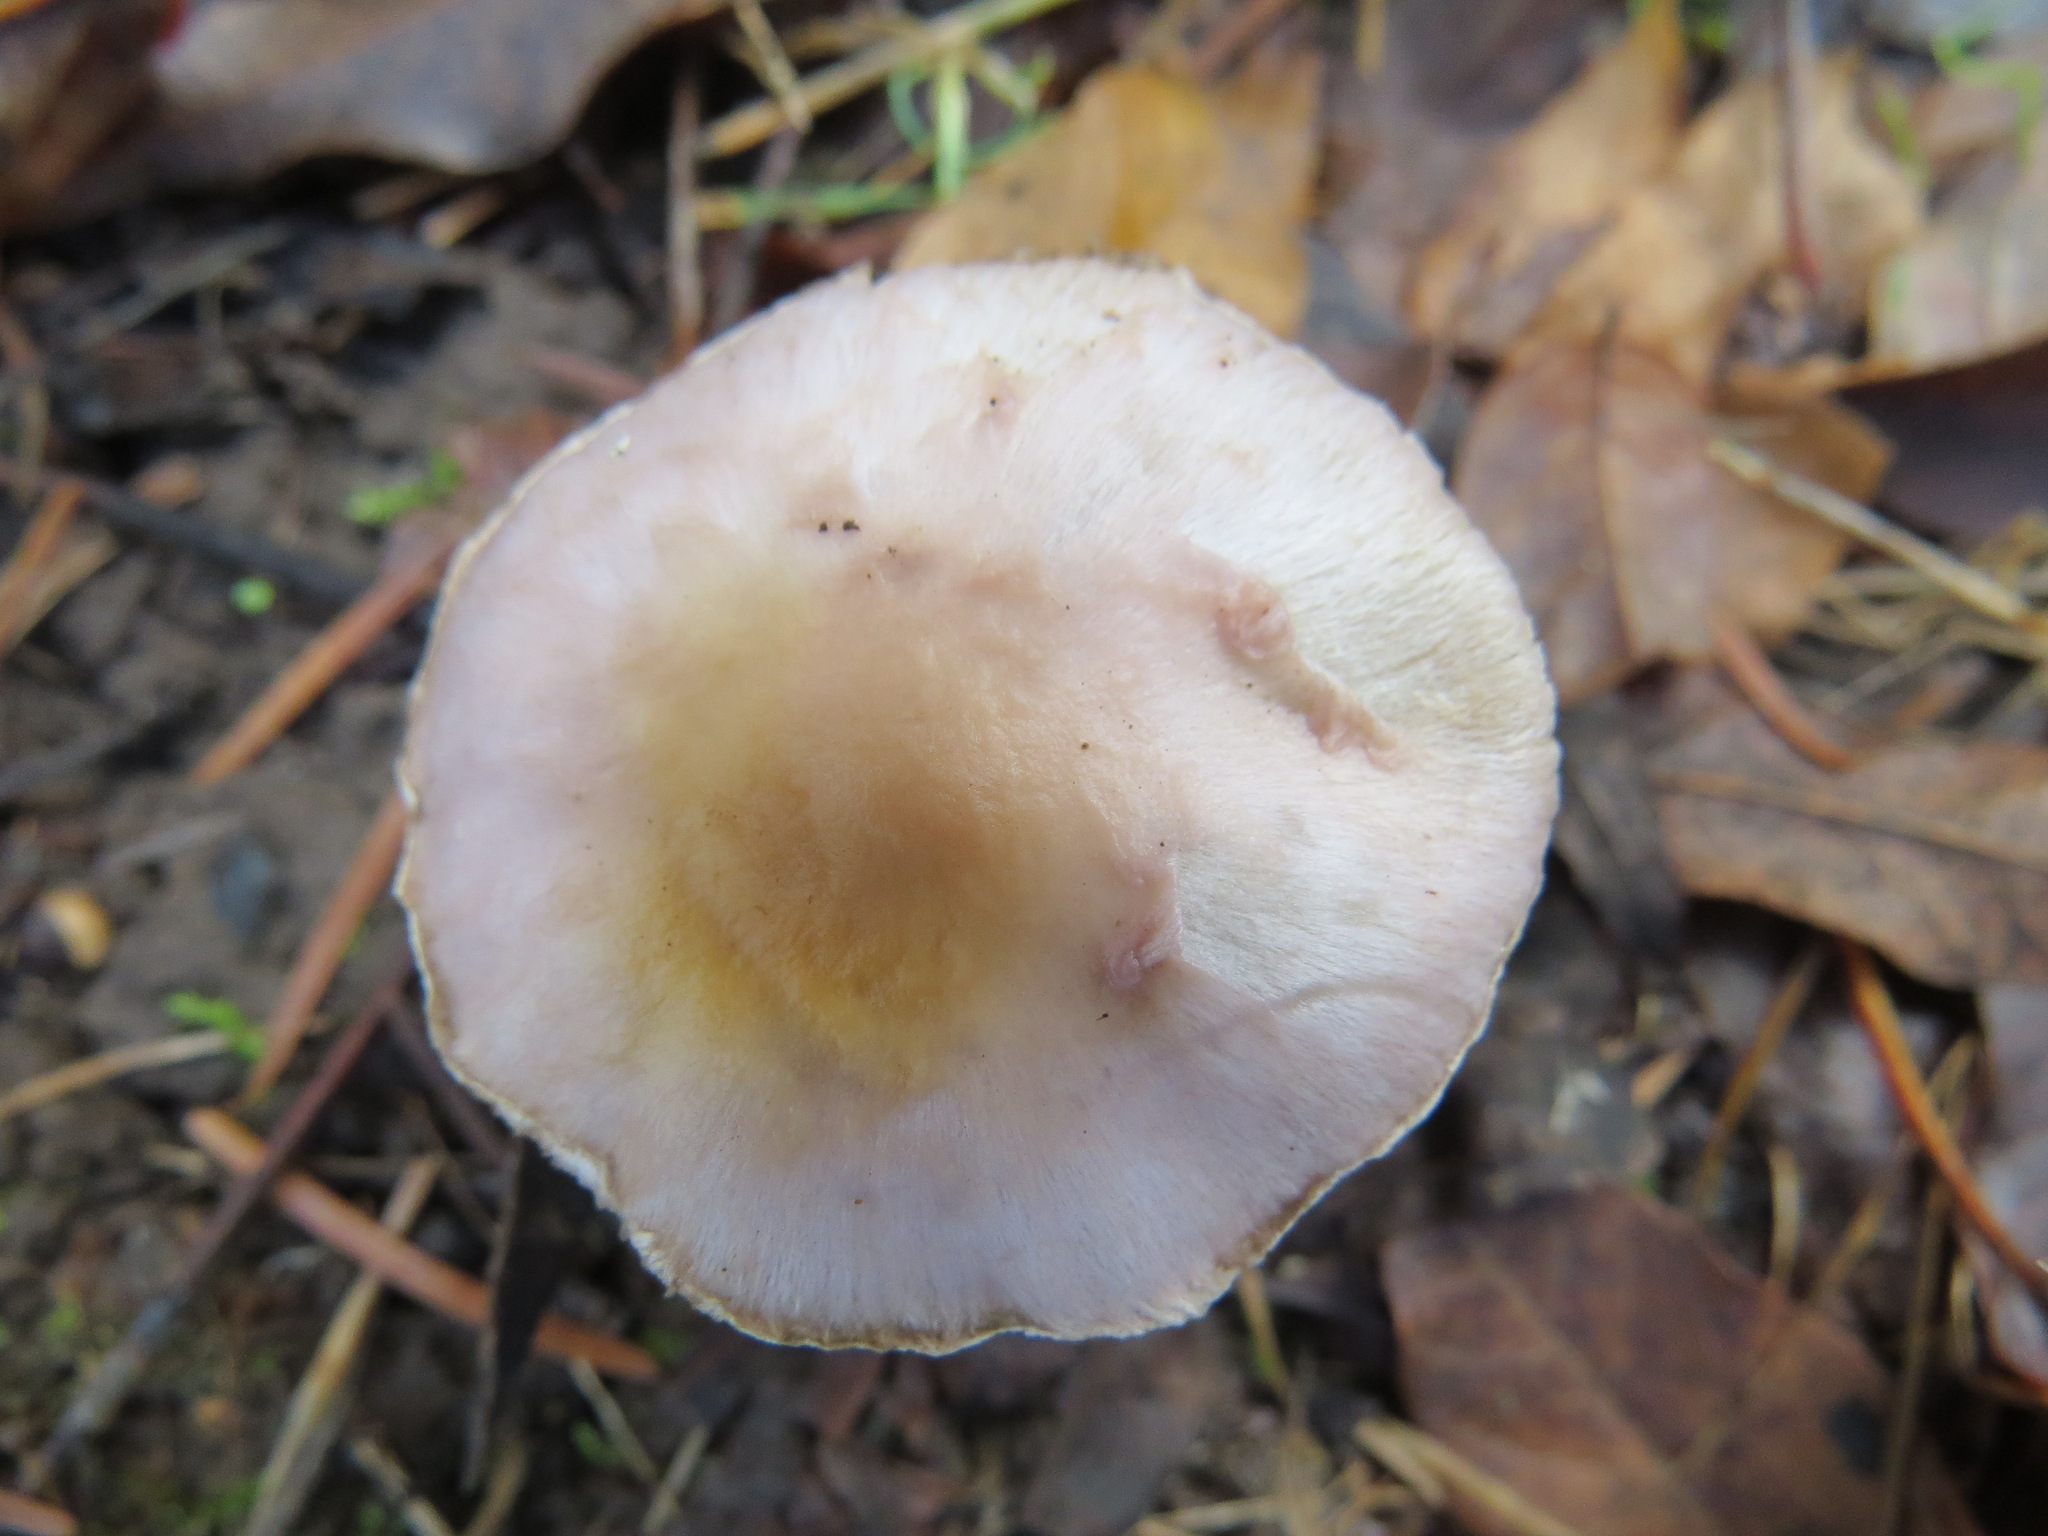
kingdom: Fungi
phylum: Basidiomycota
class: Agaricomycetes
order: Agaricales
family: Inocybaceae
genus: Inocybe
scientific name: Inocybe pallidicremea
